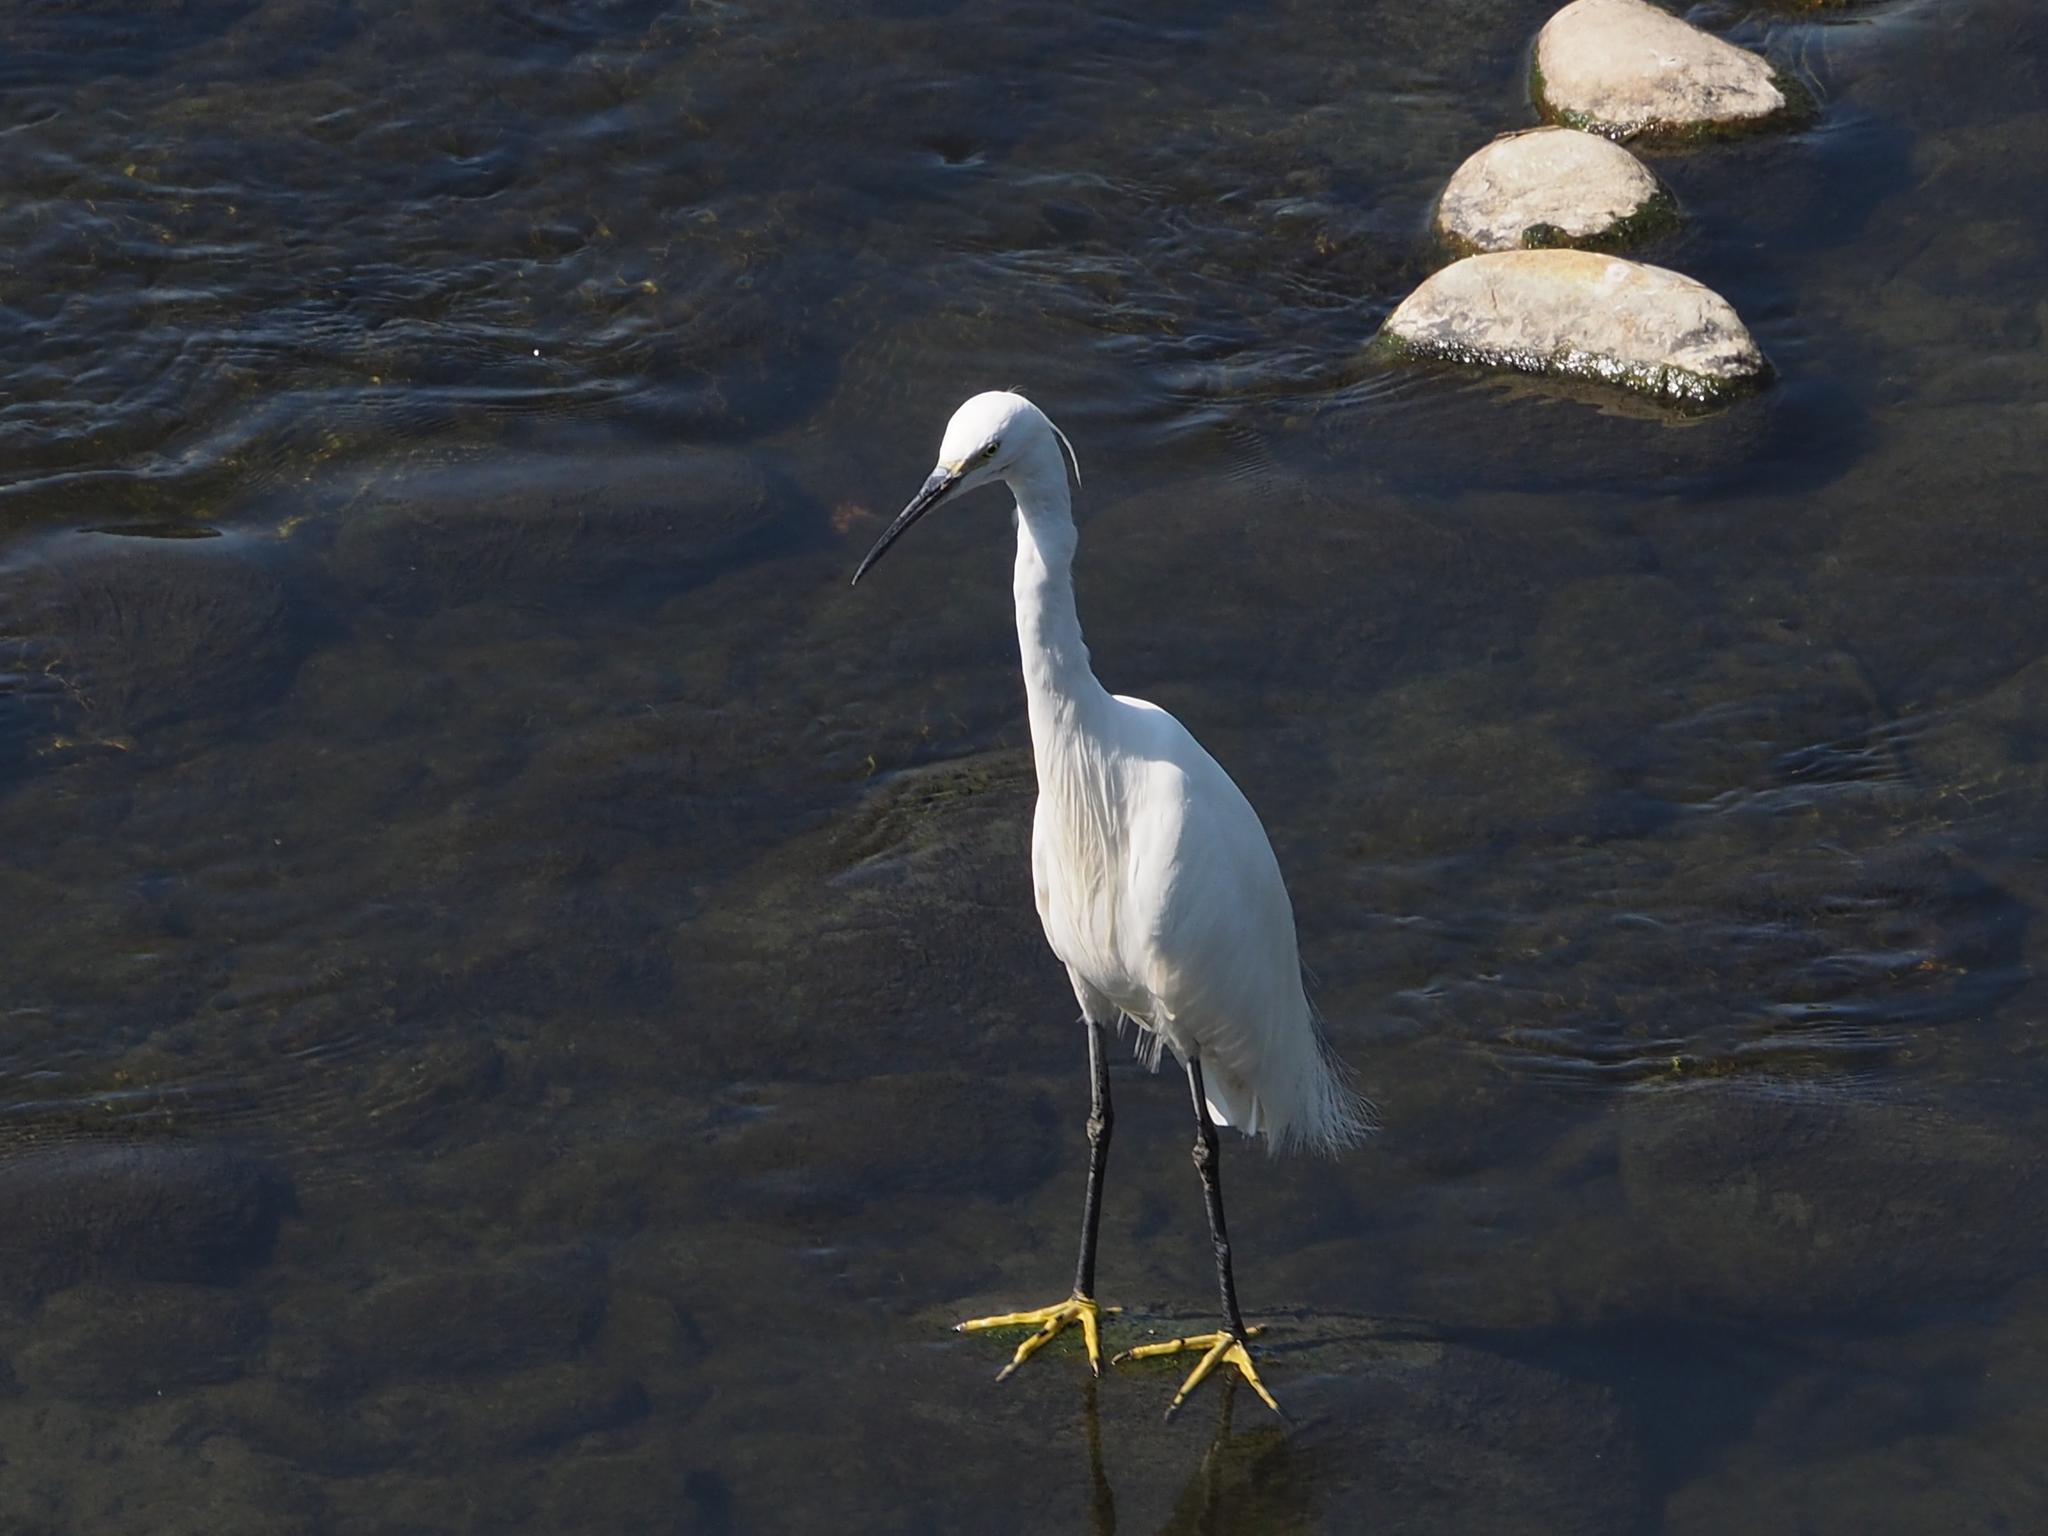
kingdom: Animalia
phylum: Chordata
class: Aves
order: Pelecaniformes
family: Ardeidae
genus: Egretta
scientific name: Egretta garzetta
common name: Little egret
